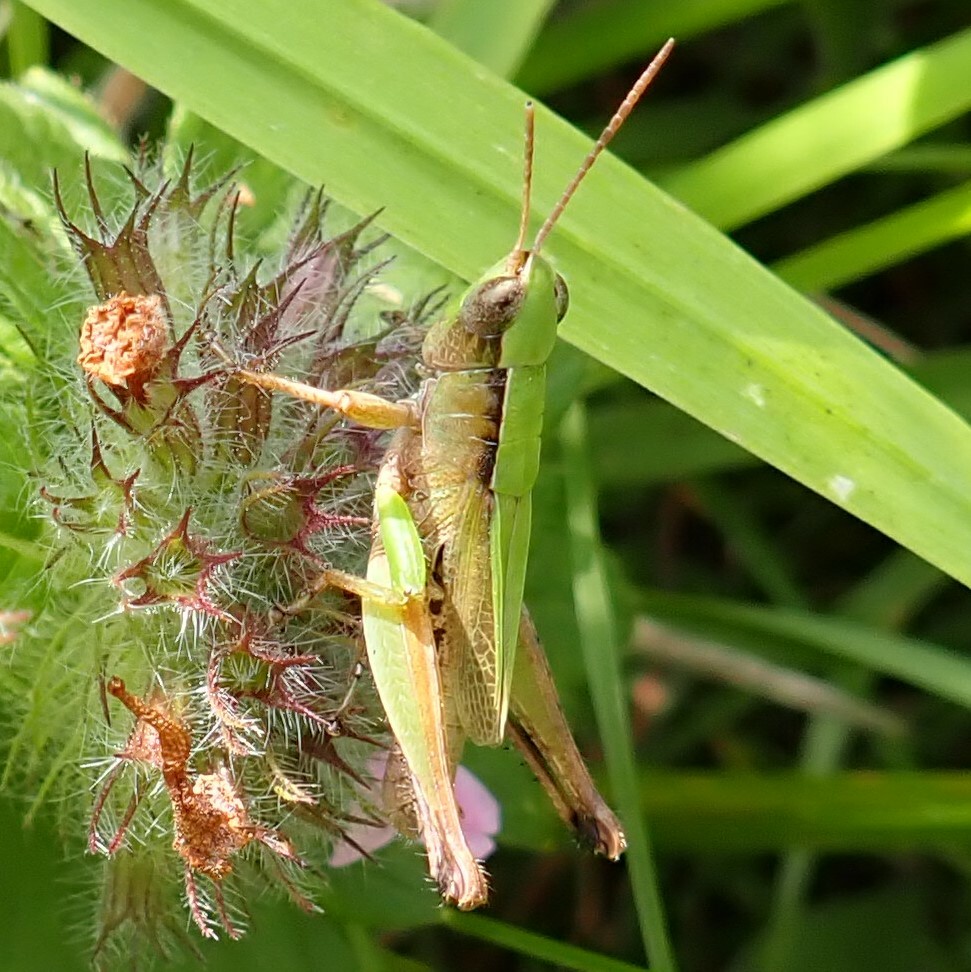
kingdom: Animalia
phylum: Arthropoda
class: Insecta
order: Orthoptera
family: Acrididae
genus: Dichromorpha
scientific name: Dichromorpha viridis
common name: Short-winged green grasshopper
